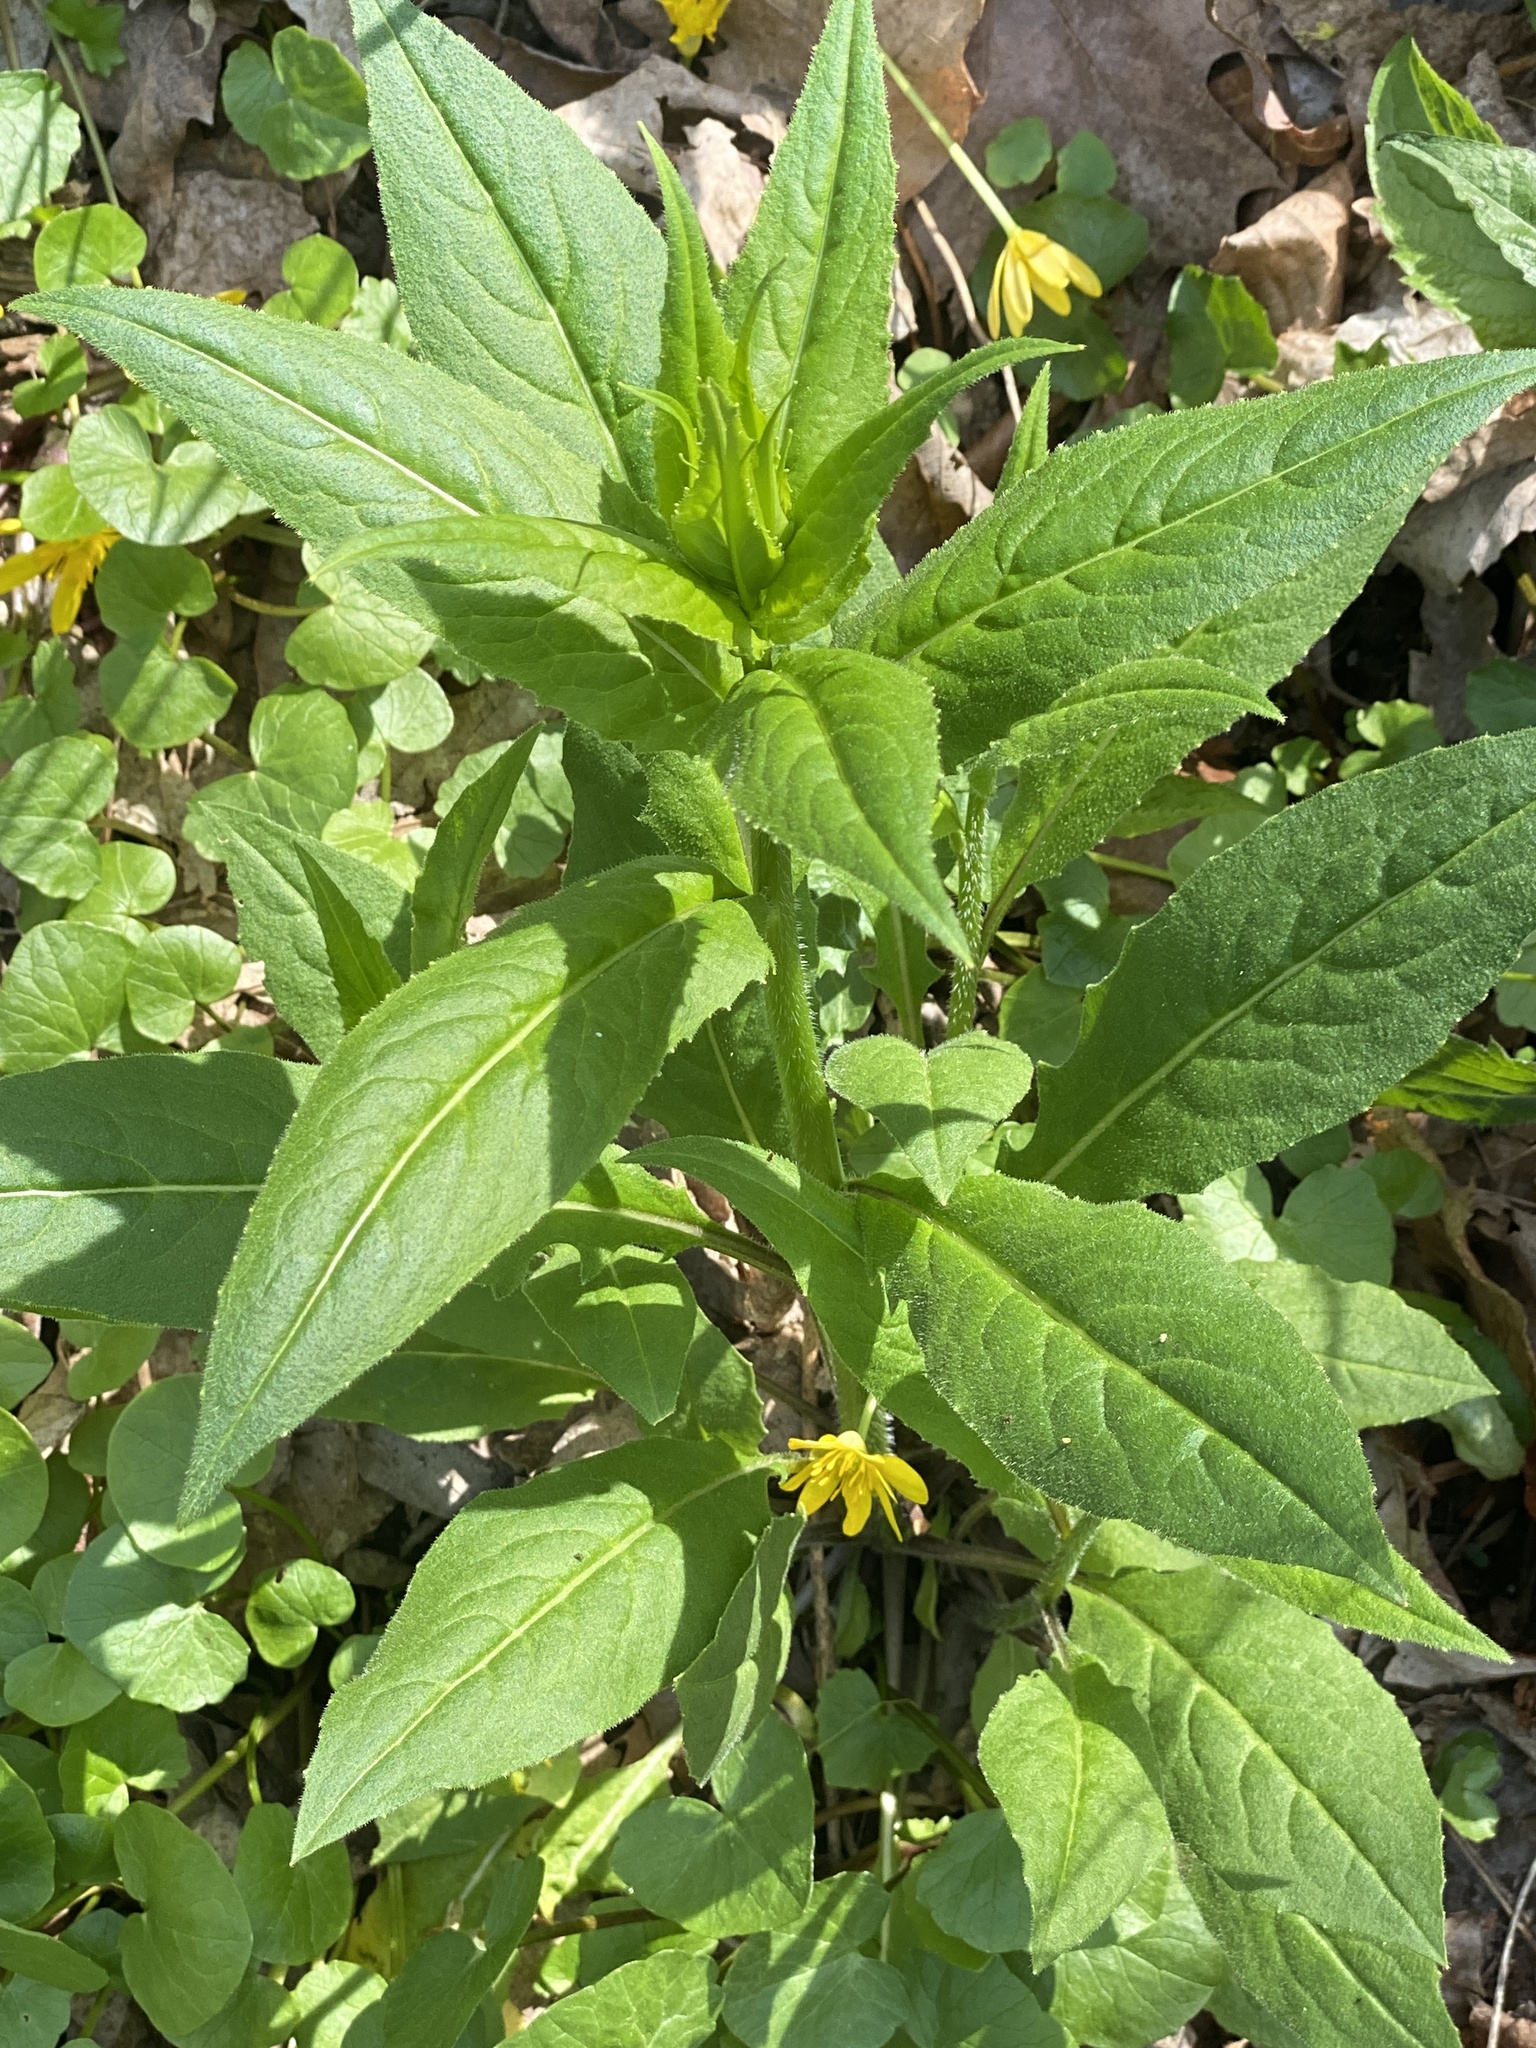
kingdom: Plantae
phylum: Tracheophyta
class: Magnoliopsida
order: Brassicales
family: Brassicaceae
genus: Hesperis
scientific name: Hesperis matronalis
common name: Dame's-violet
